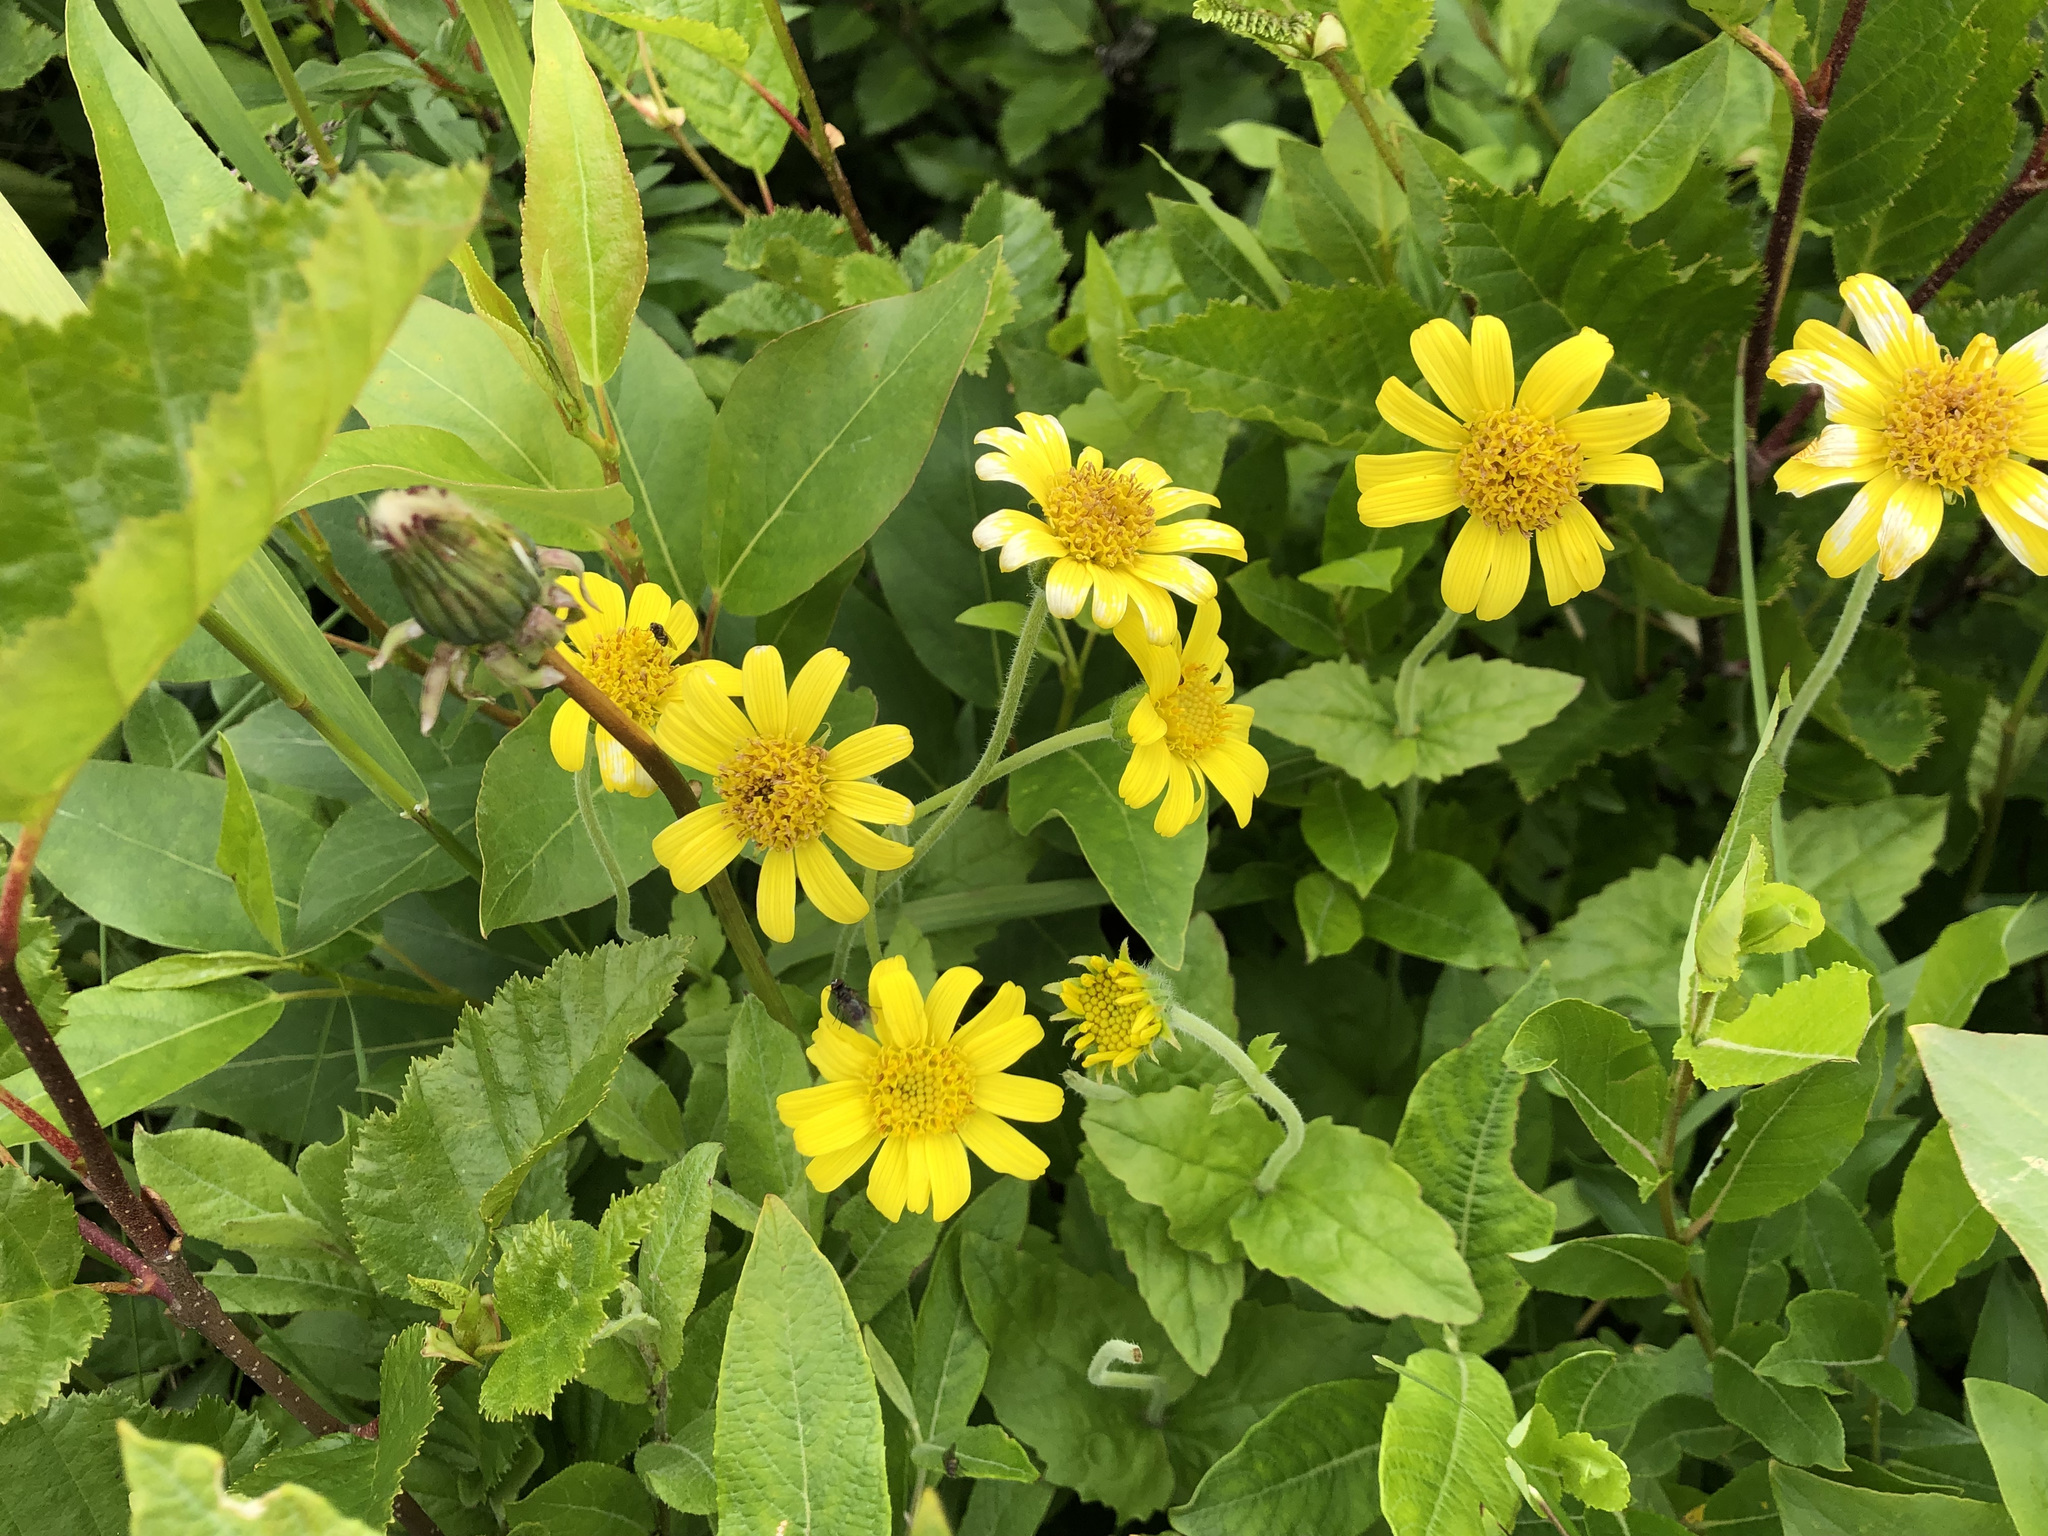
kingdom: Plantae
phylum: Tracheophyta
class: Magnoliopsida
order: Asterales
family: Asteraceae
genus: Arnica
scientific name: Arnica latifolia
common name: Arnica
